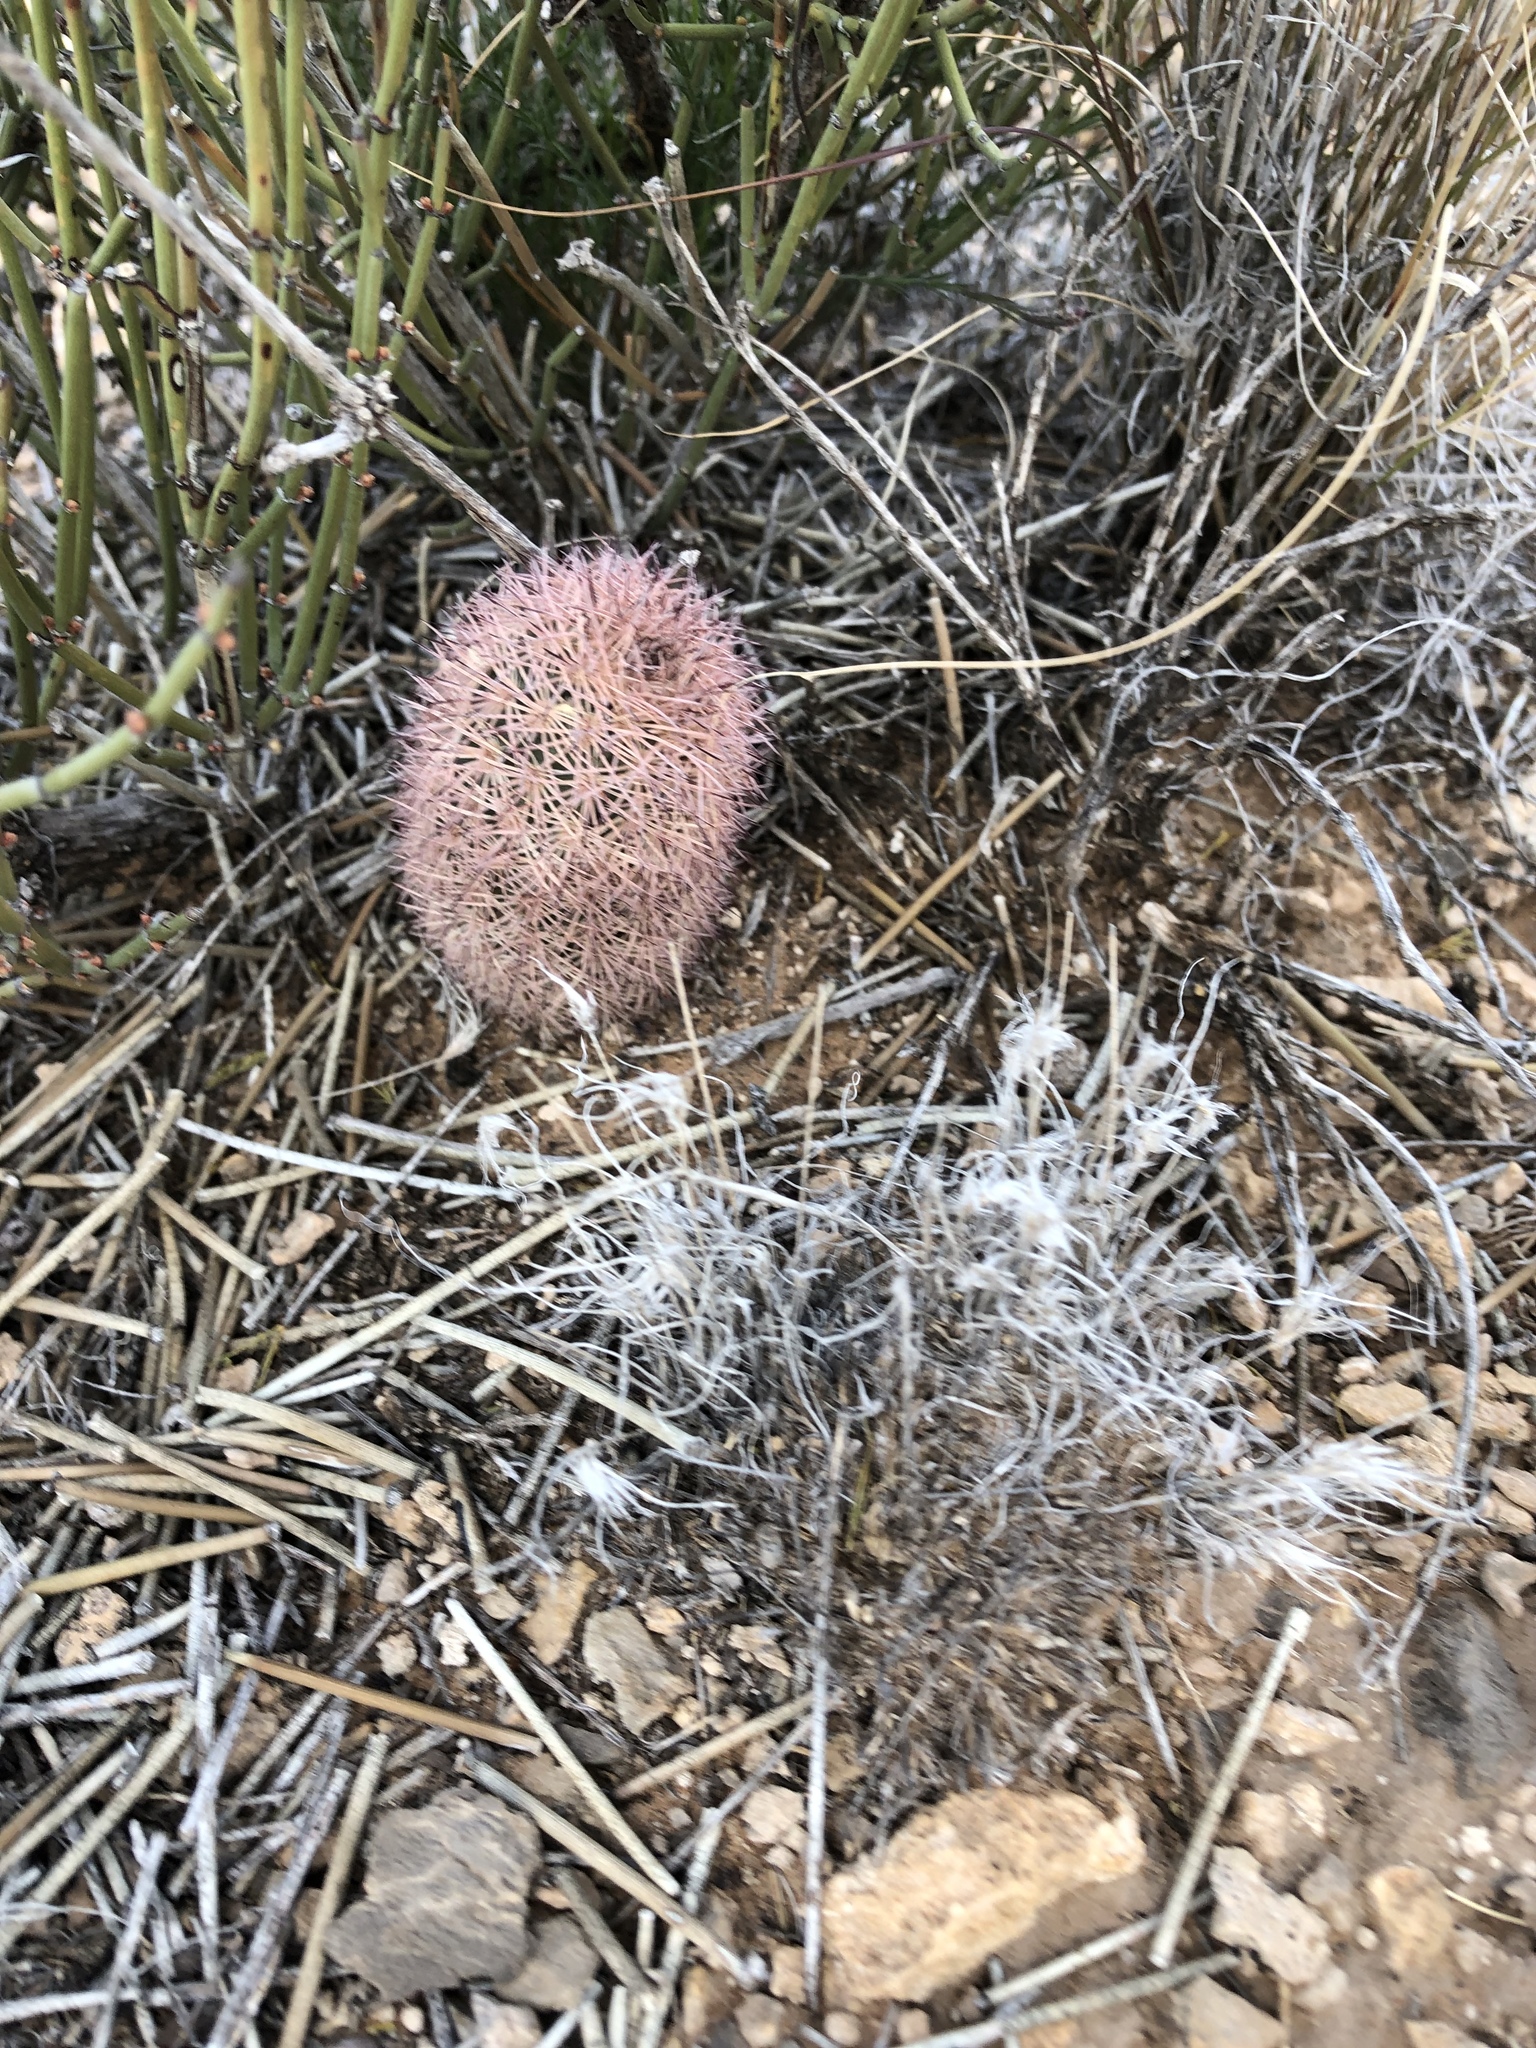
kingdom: Plantae
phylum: Tracheophyta
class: Magnoliopsida
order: Caryophyllales
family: Cactaceae
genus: Echinocereus
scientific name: Echinocereus dasyacanthus
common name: Spiny hedgehog cactus
